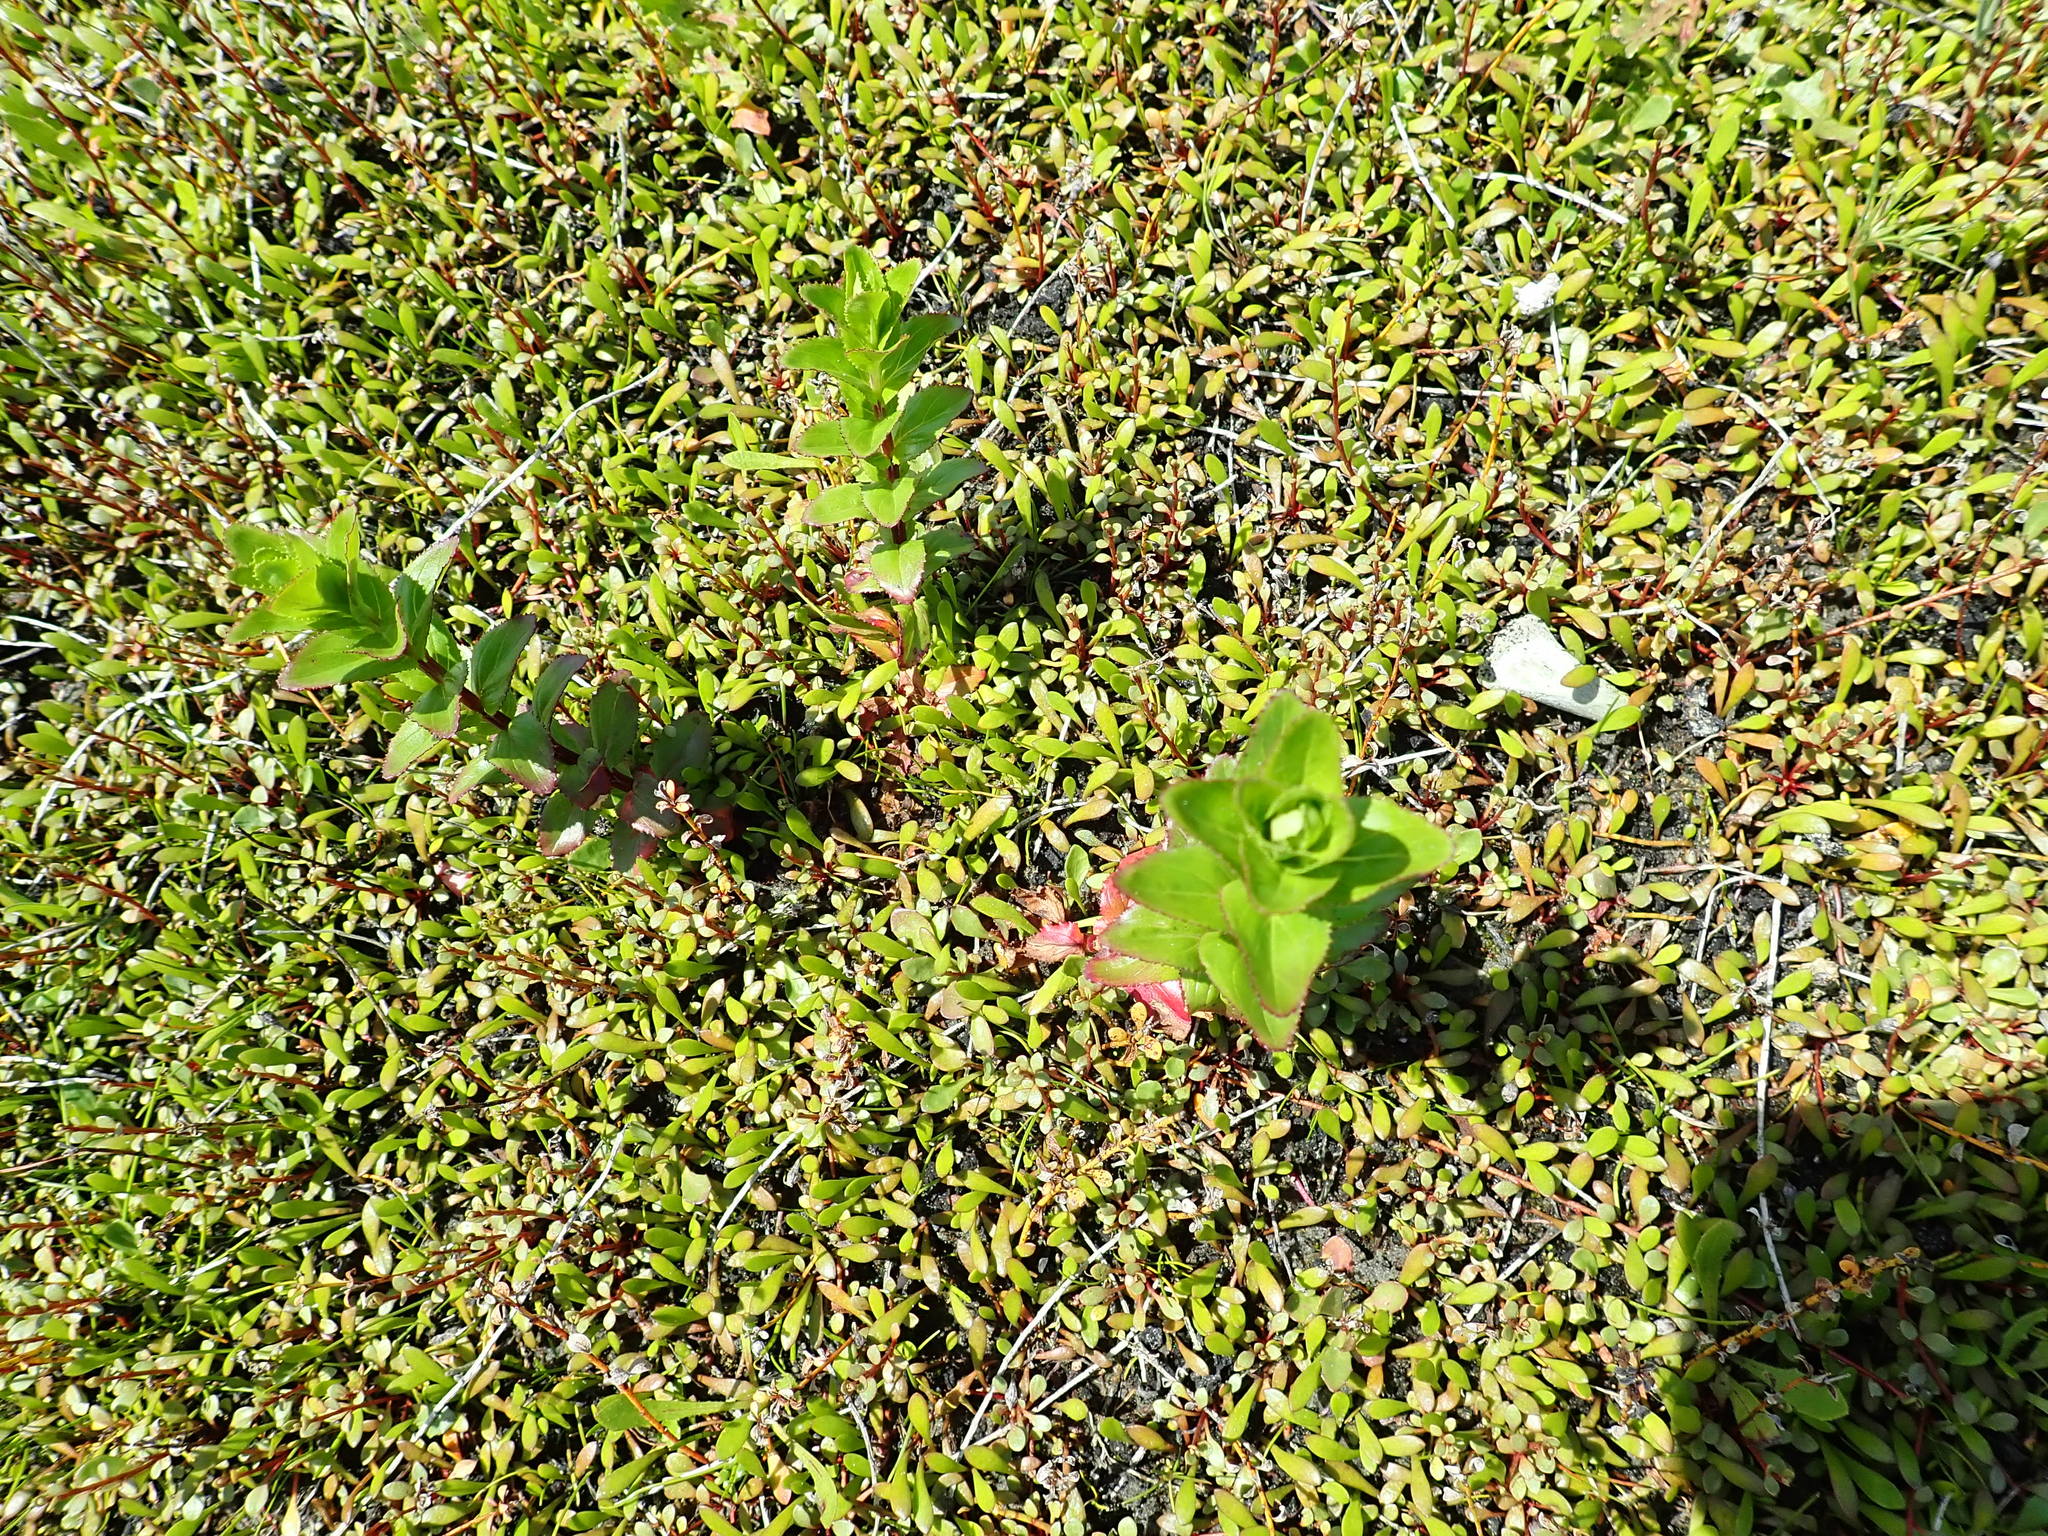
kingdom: Plantae
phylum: Tracheophyta
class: Magnoliopsida
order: Myrtales
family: Onagraceae
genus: Epilobium
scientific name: Epilobium billardiereanum
